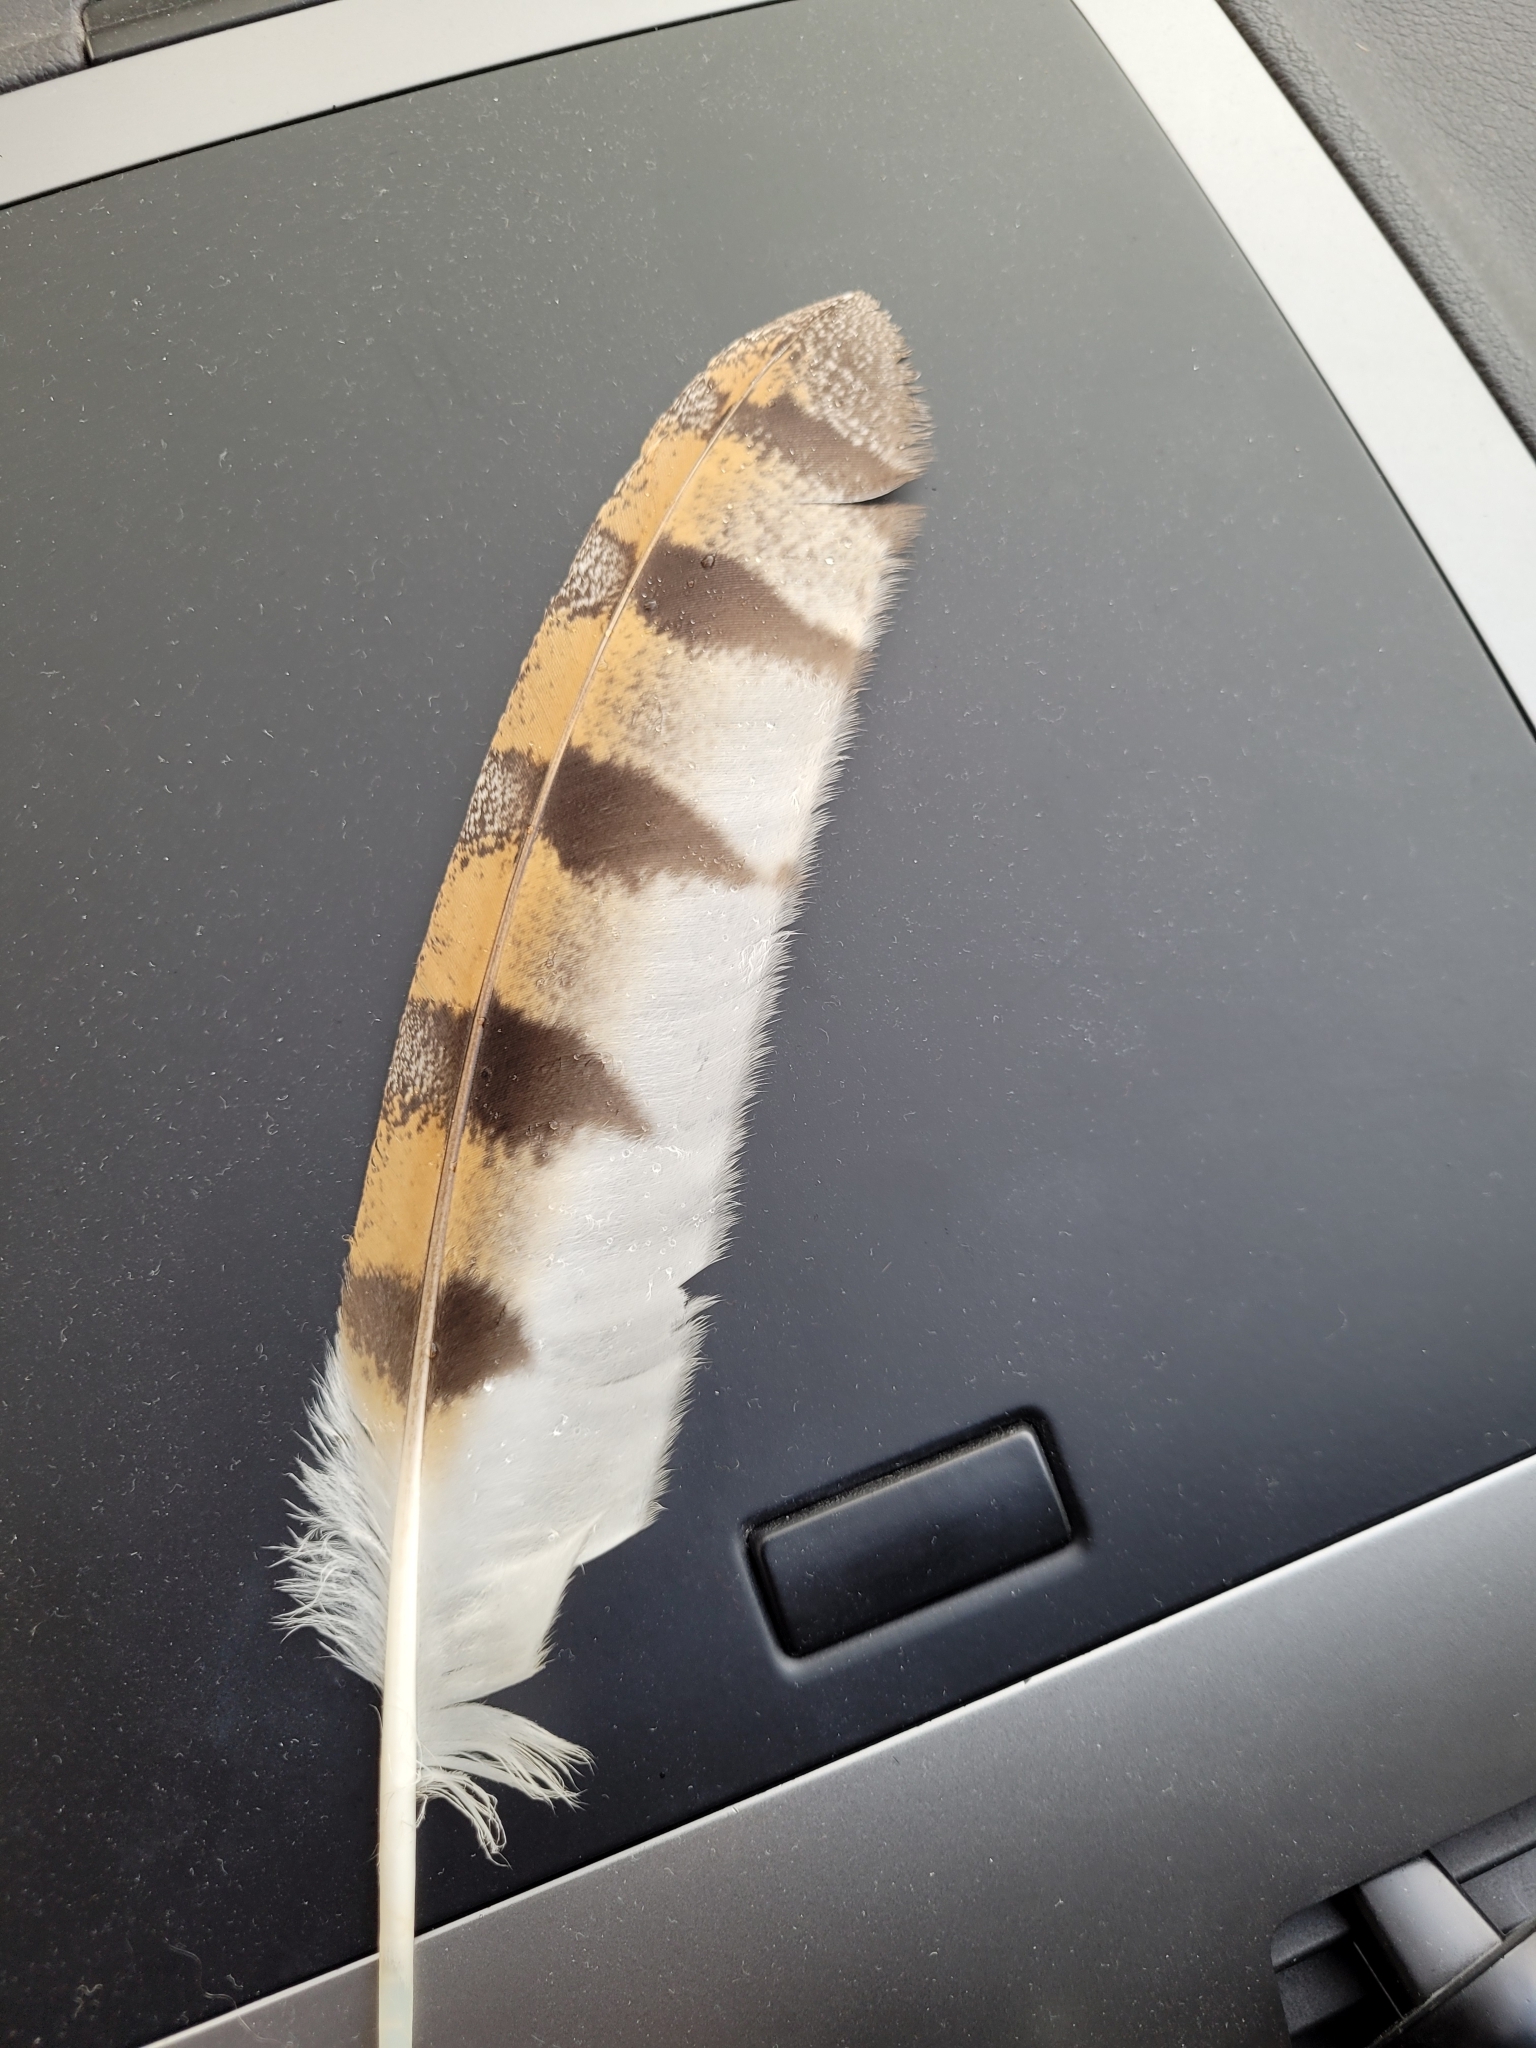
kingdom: Animalia
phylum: Chordata
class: Aves
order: Strigiformes
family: Tytonidae
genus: Tyto
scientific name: Tyto alba
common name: Barn owl
